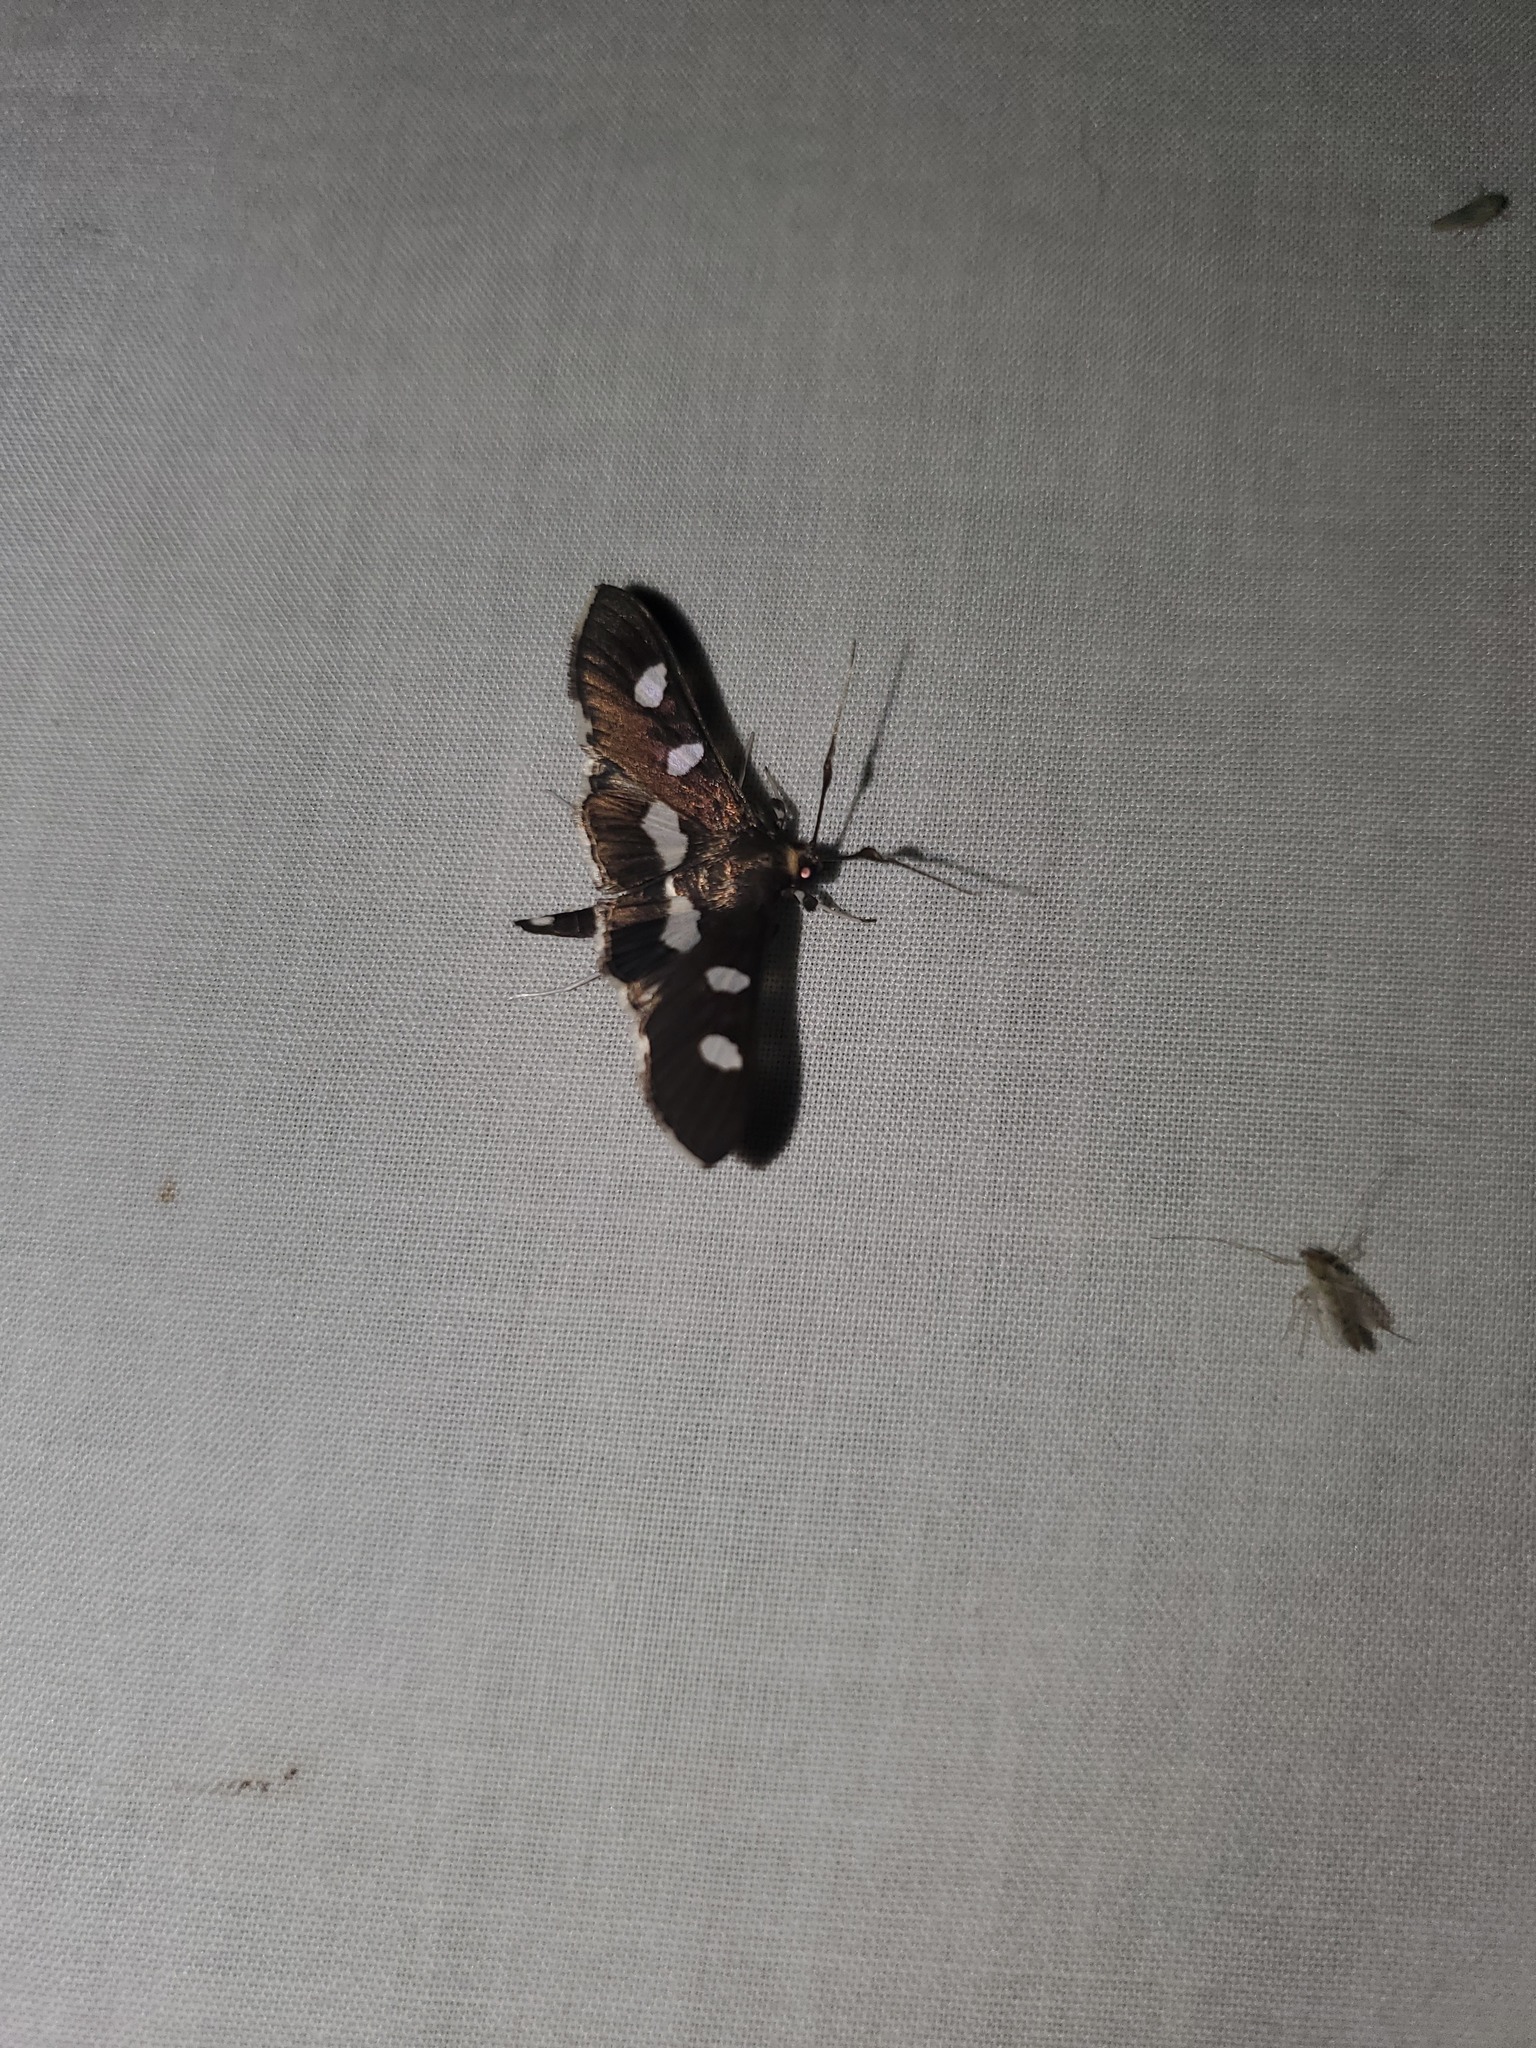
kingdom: Animalia
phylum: Arthropoda
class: Insecta
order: Lepidoptera
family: Crambidae
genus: Desmia
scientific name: Desmia
